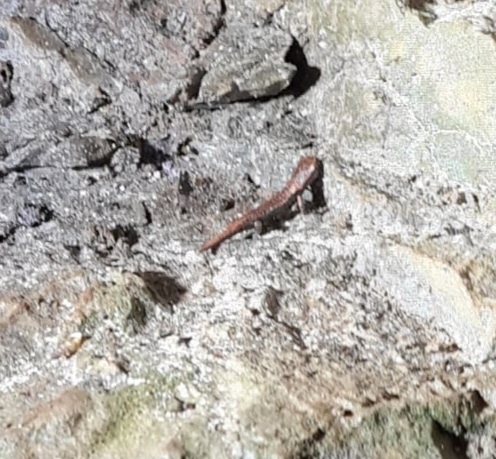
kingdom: Animalia
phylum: Chordata
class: Amphibia
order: Caudata
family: Plethodontidae
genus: Speleomantes
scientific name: Speleomantes italicus
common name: Italian cave salamander
